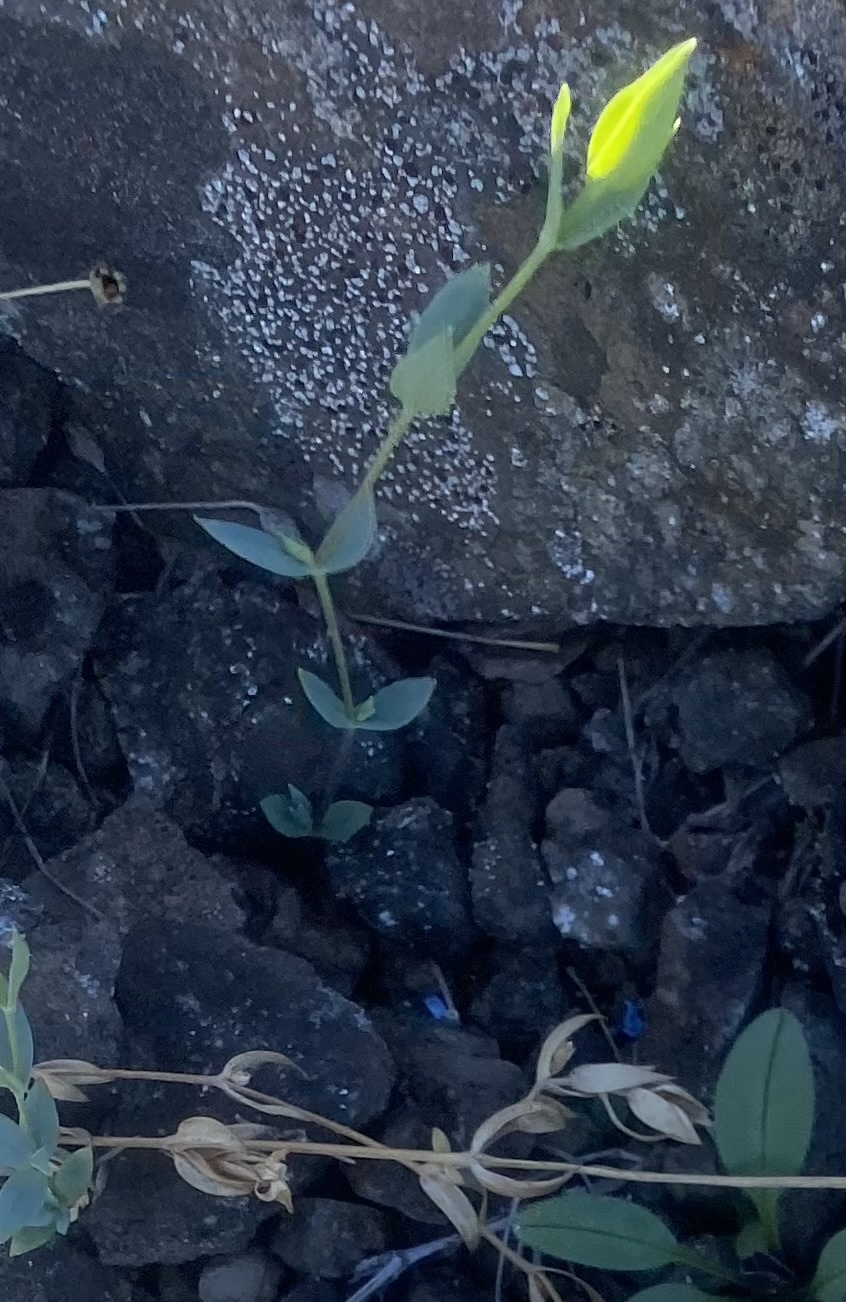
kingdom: Plantae
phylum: Tracheophyta
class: Magnoliopsida
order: Caryophyllales
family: Caryophyllaceae
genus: Stellaria
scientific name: Stellaria longipes
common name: Goldie's starwort
